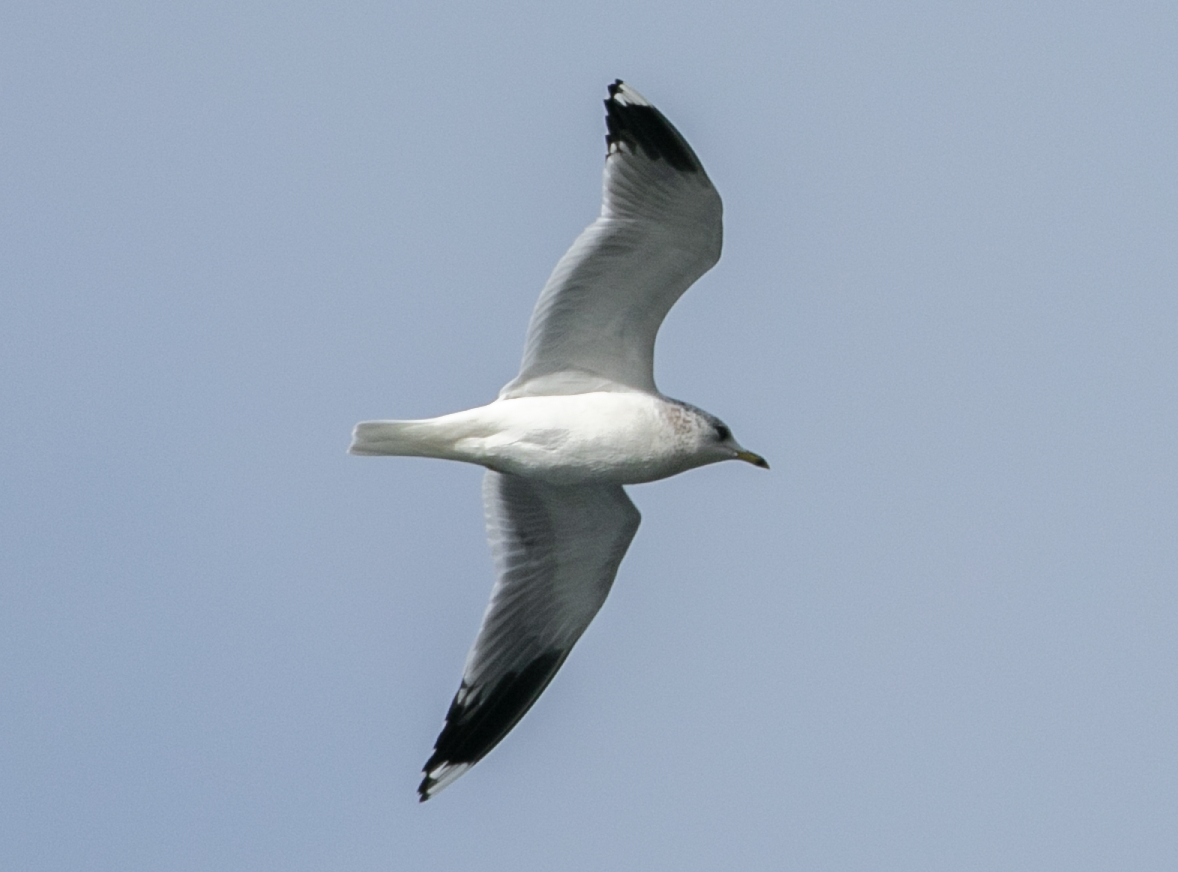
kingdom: Animalia
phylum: Chordata
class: Aves
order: Charadriiformes
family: Laridae
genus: Larus
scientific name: Larus canus
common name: Mew gull
